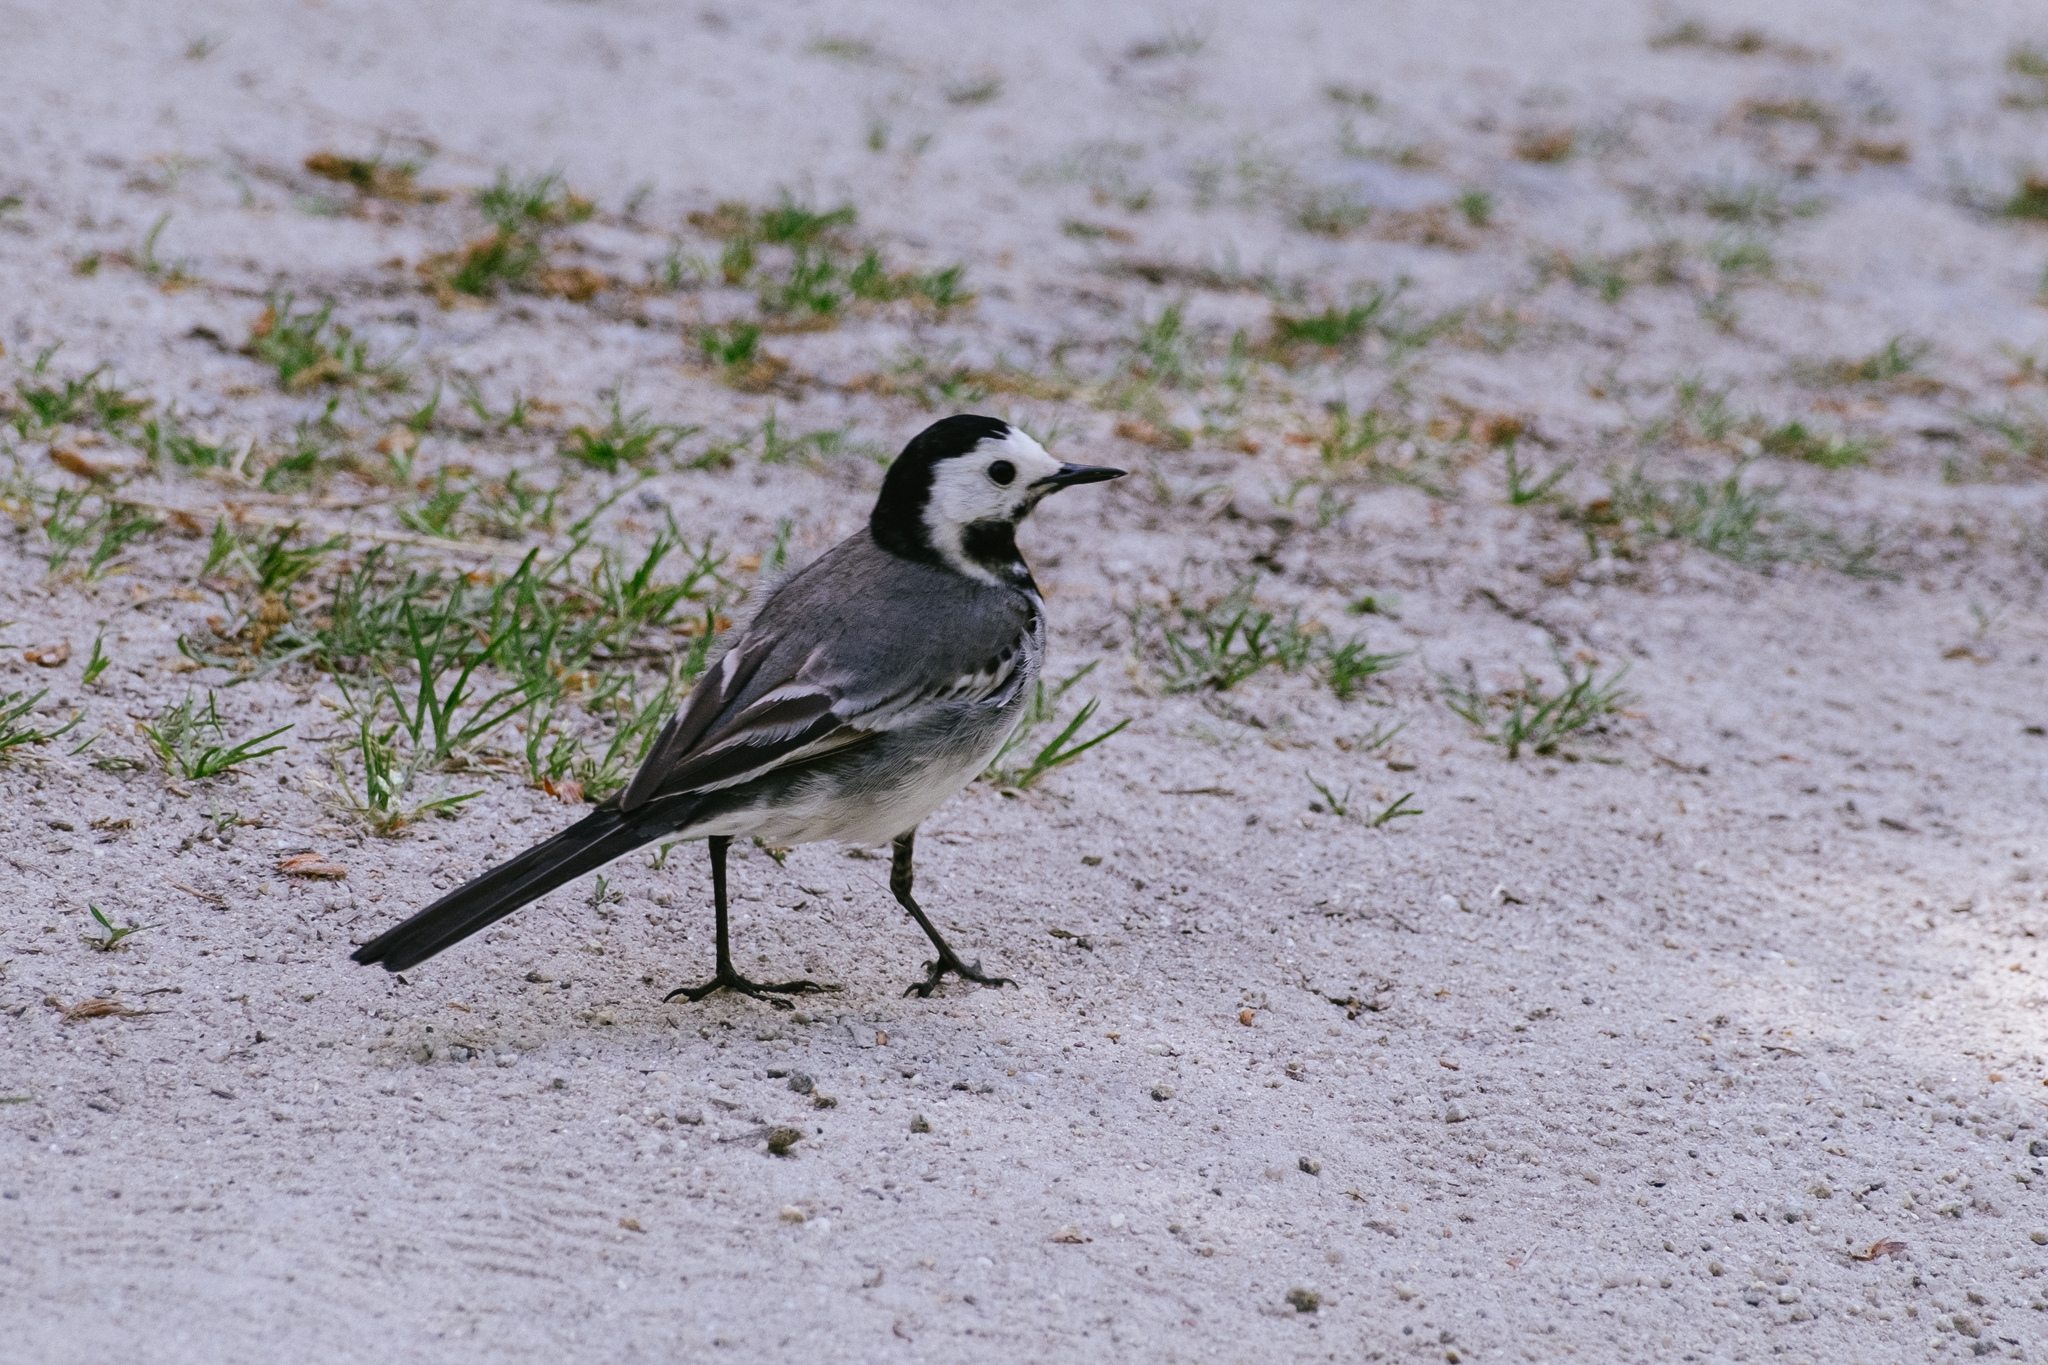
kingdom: Animalia
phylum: Chordata
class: Aves
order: Passeriformes
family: Motacillidae
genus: Motacilla
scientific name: Motacilla alba
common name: White wagtail
